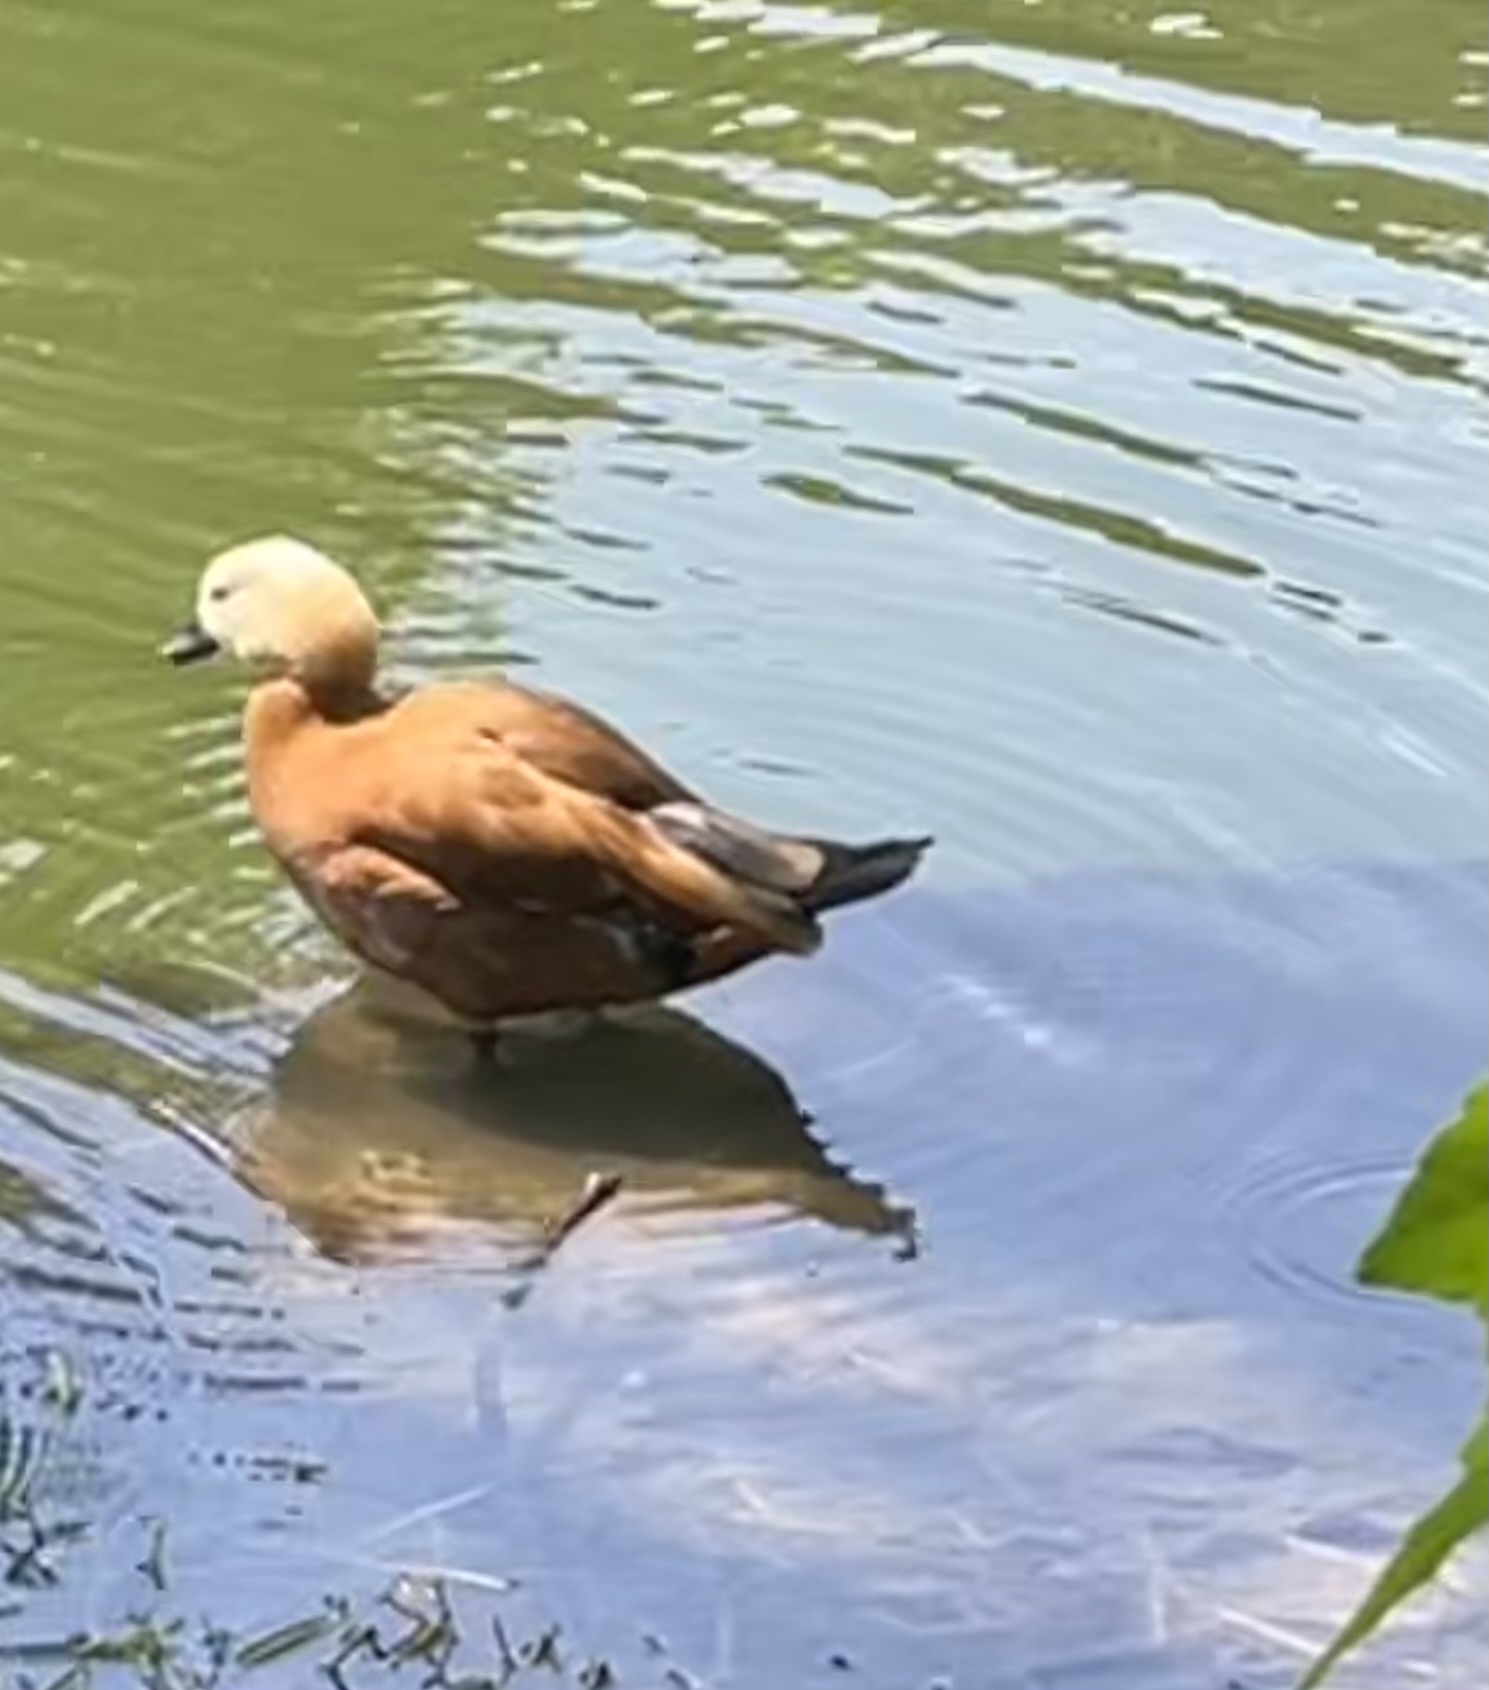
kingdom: Animalia
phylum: Chordata
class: Aves
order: Anseriformes
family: Anatidae
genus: Tadorna
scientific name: Tadorna ferruginea
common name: Ruddy shelduck
